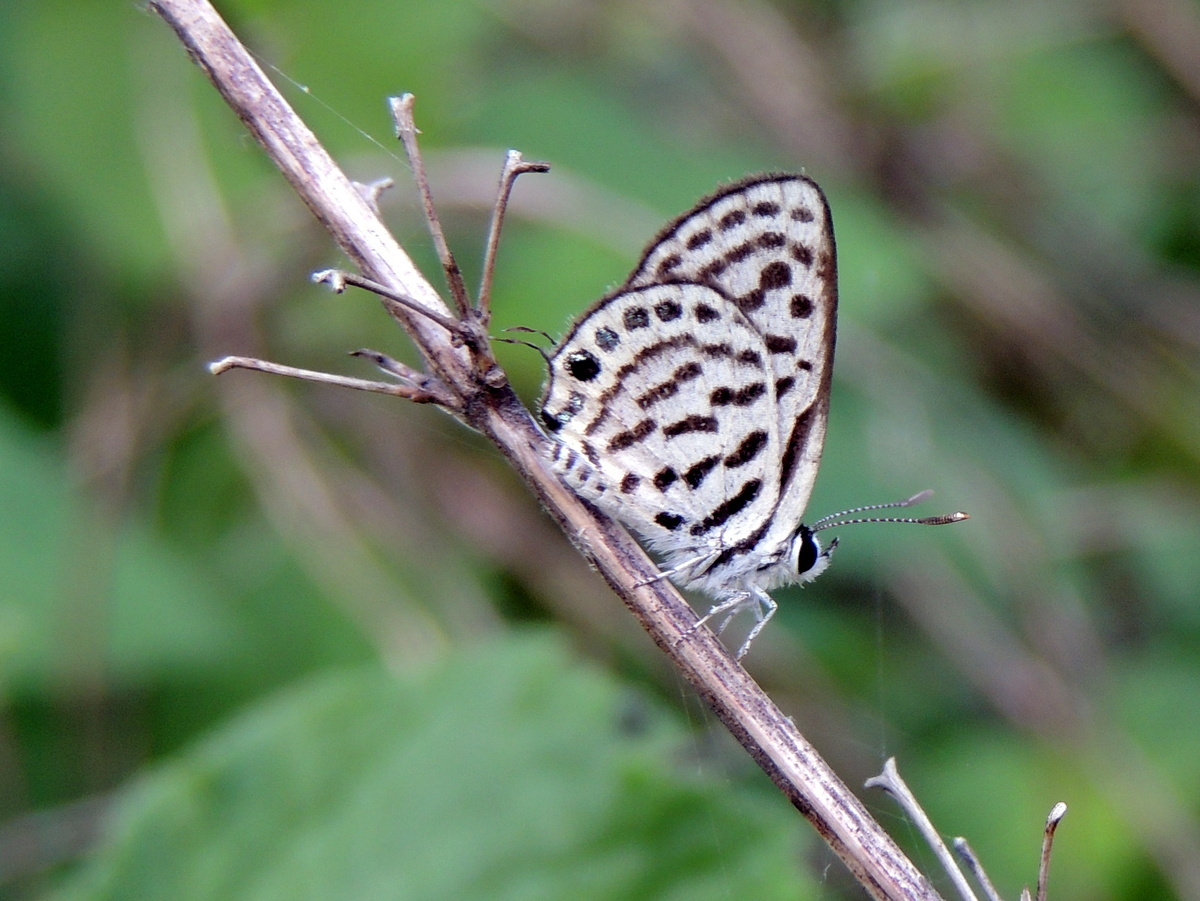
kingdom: Animalia
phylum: Arthropoda
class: Insecta
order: Lepidoptera
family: Lycaenidae
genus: Tarucus
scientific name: Tarucus
